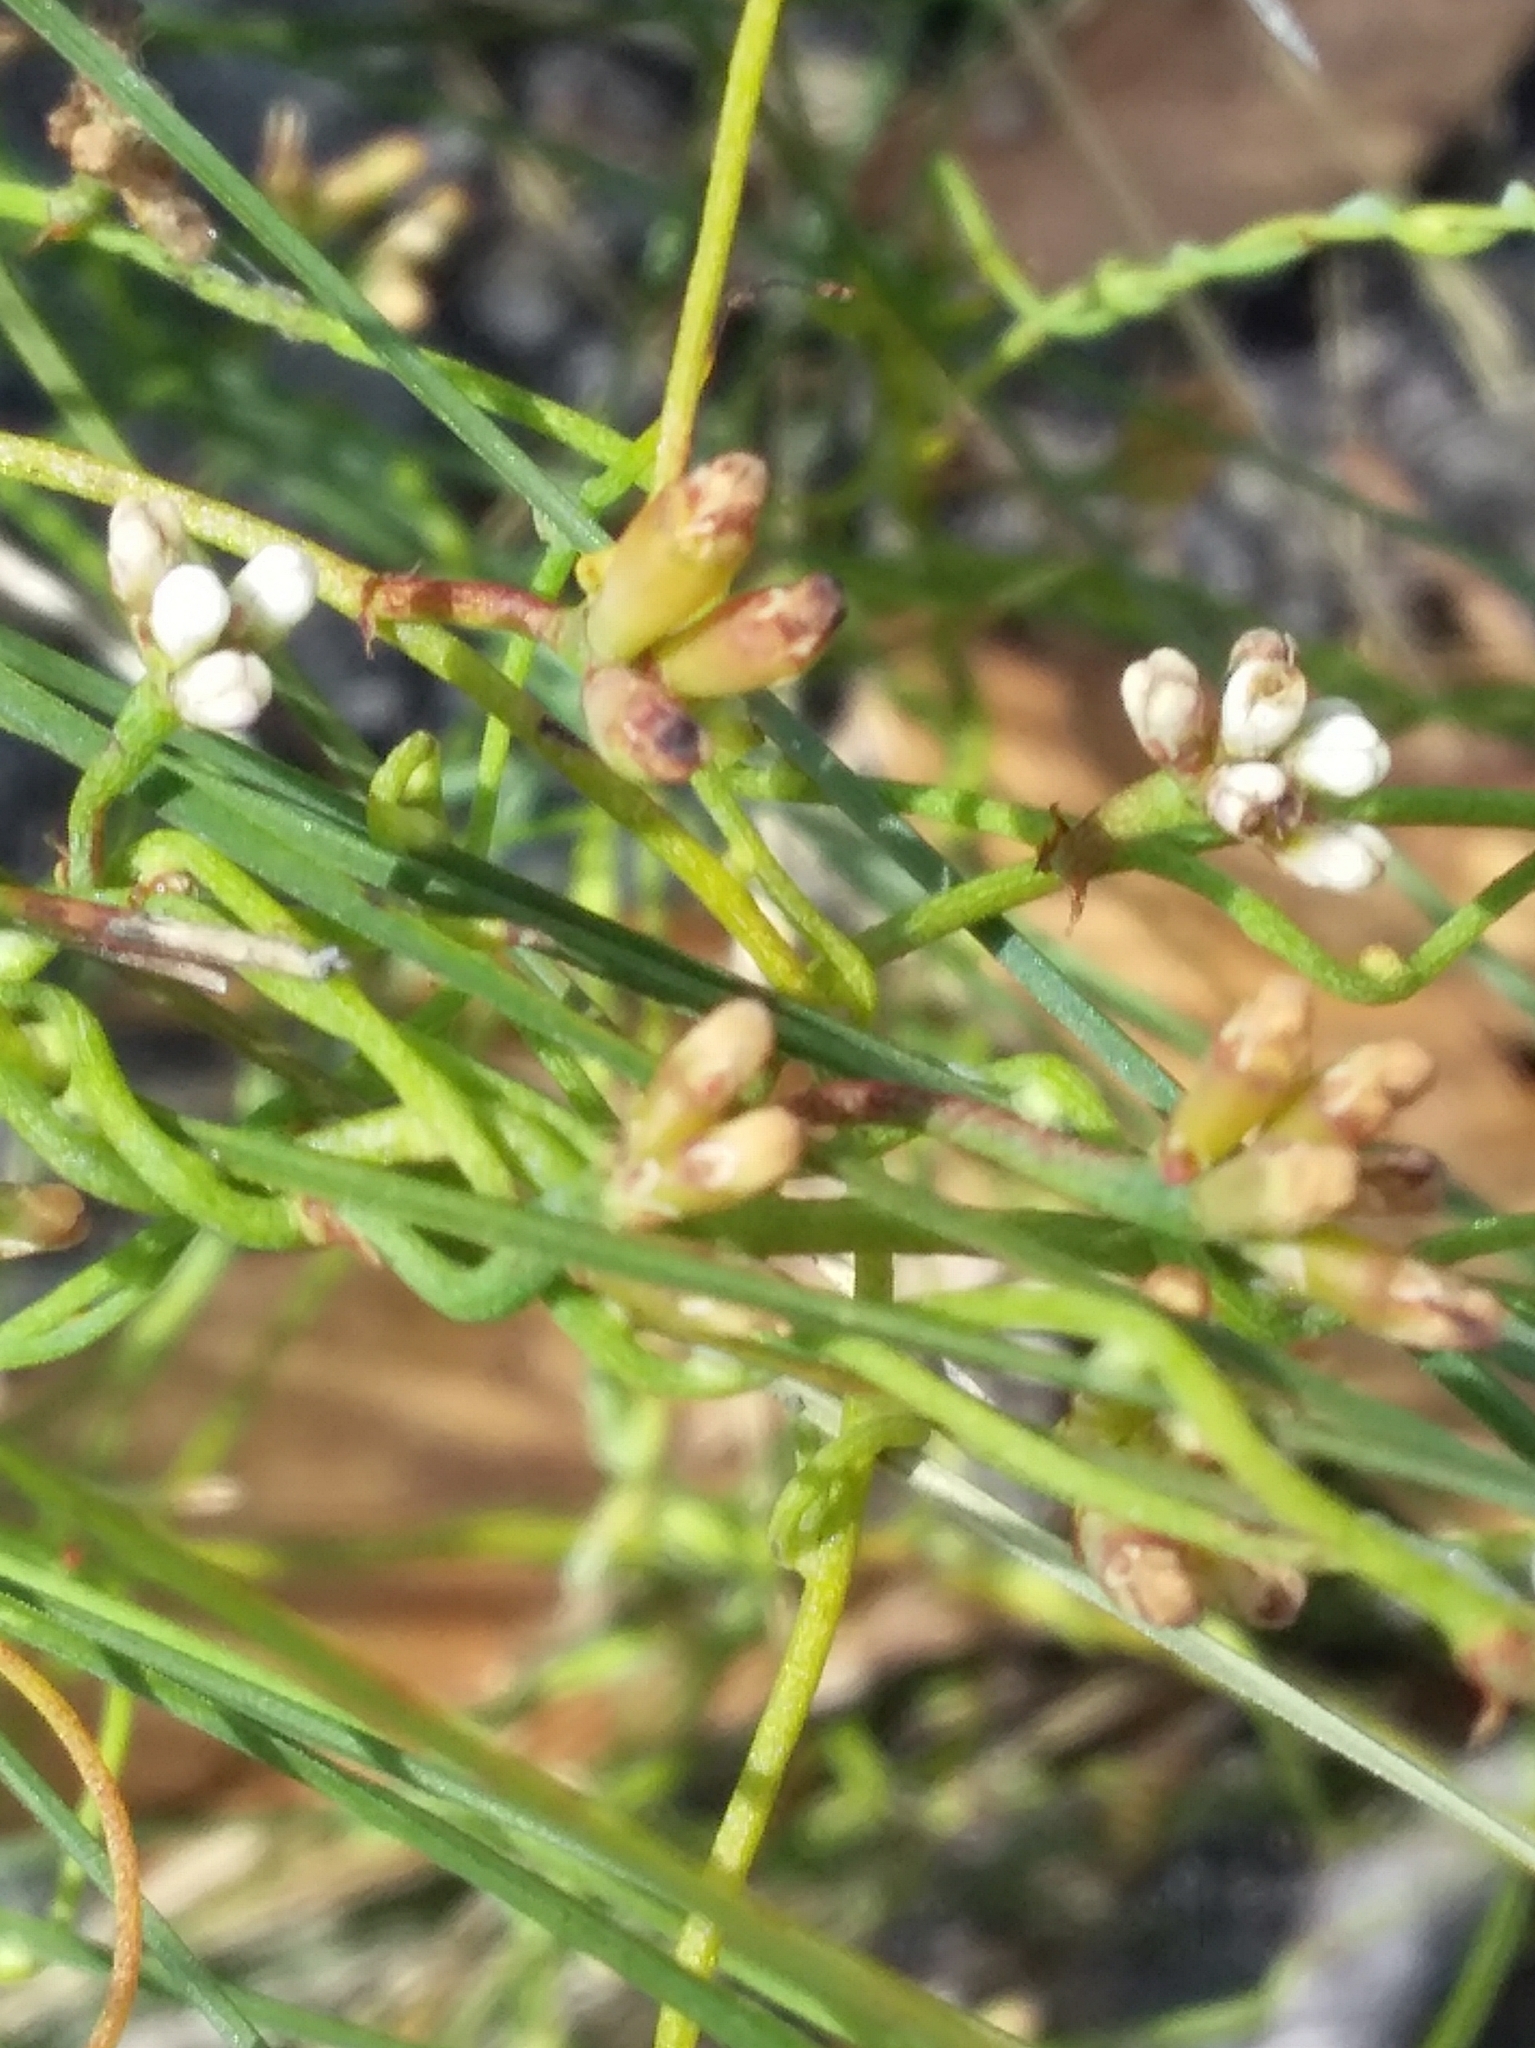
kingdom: Plantae
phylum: Tracheophyta
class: Magnoliopsida
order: Laurales
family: Lauraceae
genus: Cassytha
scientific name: Cassytha glabella
